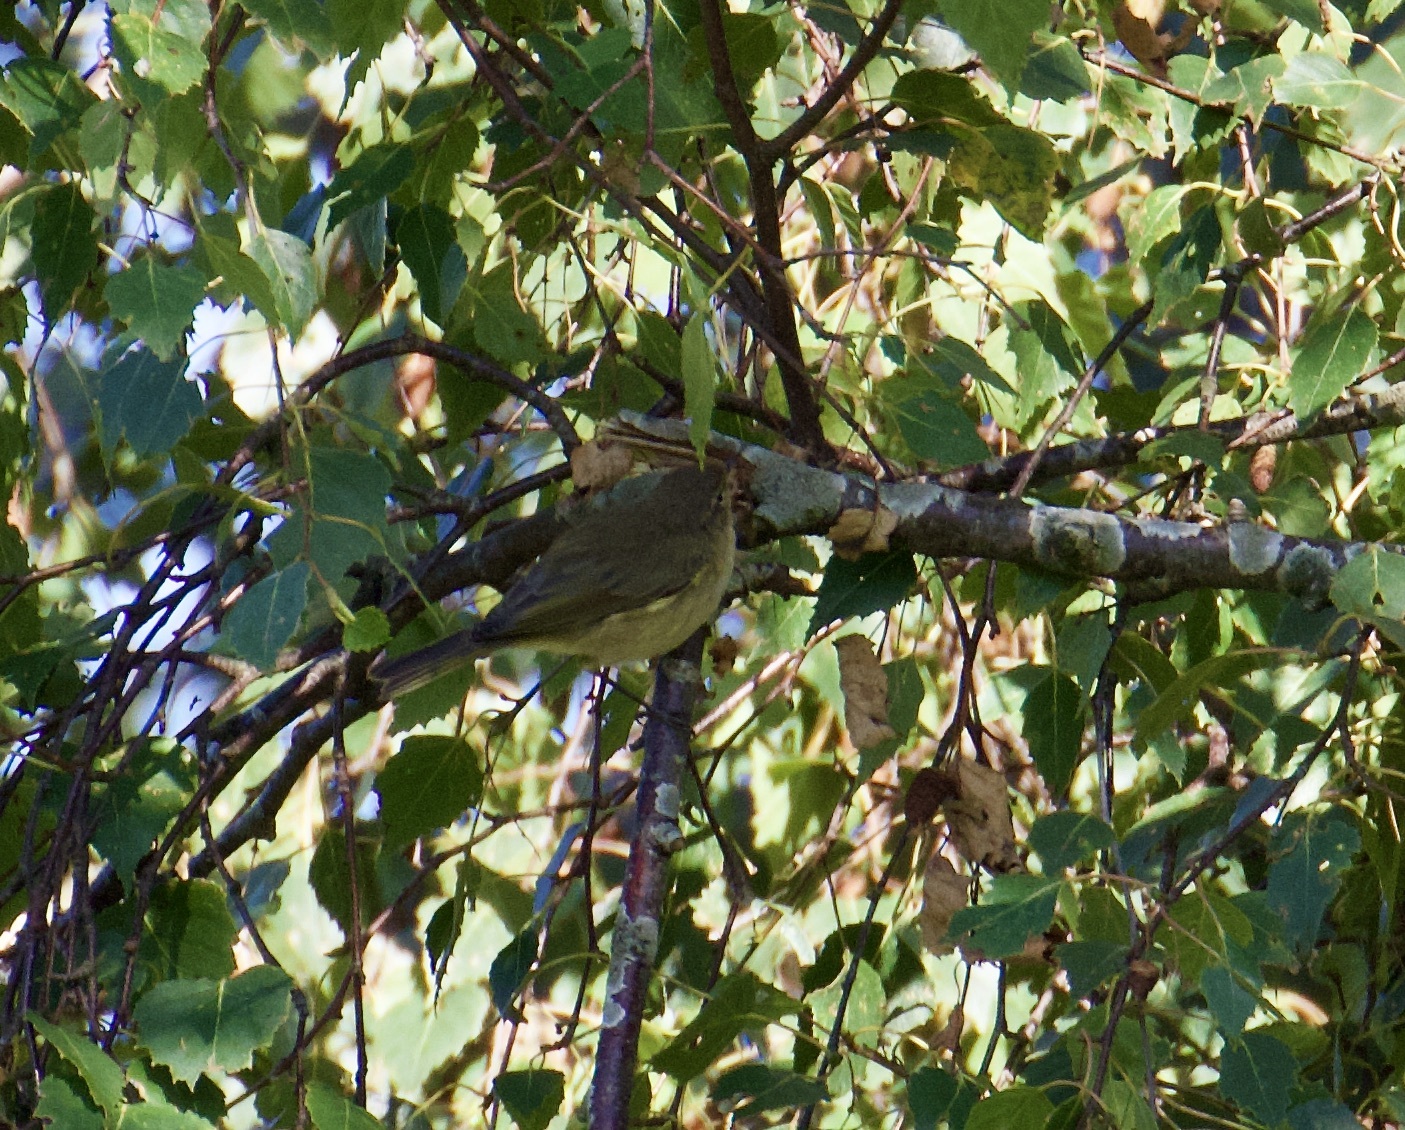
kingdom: Animalia
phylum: Chordata
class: Aves
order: Passeriformes
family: Phylloscopidae
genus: Phylloscopus
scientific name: Phylloscopus collybita
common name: Common chiffchaff
